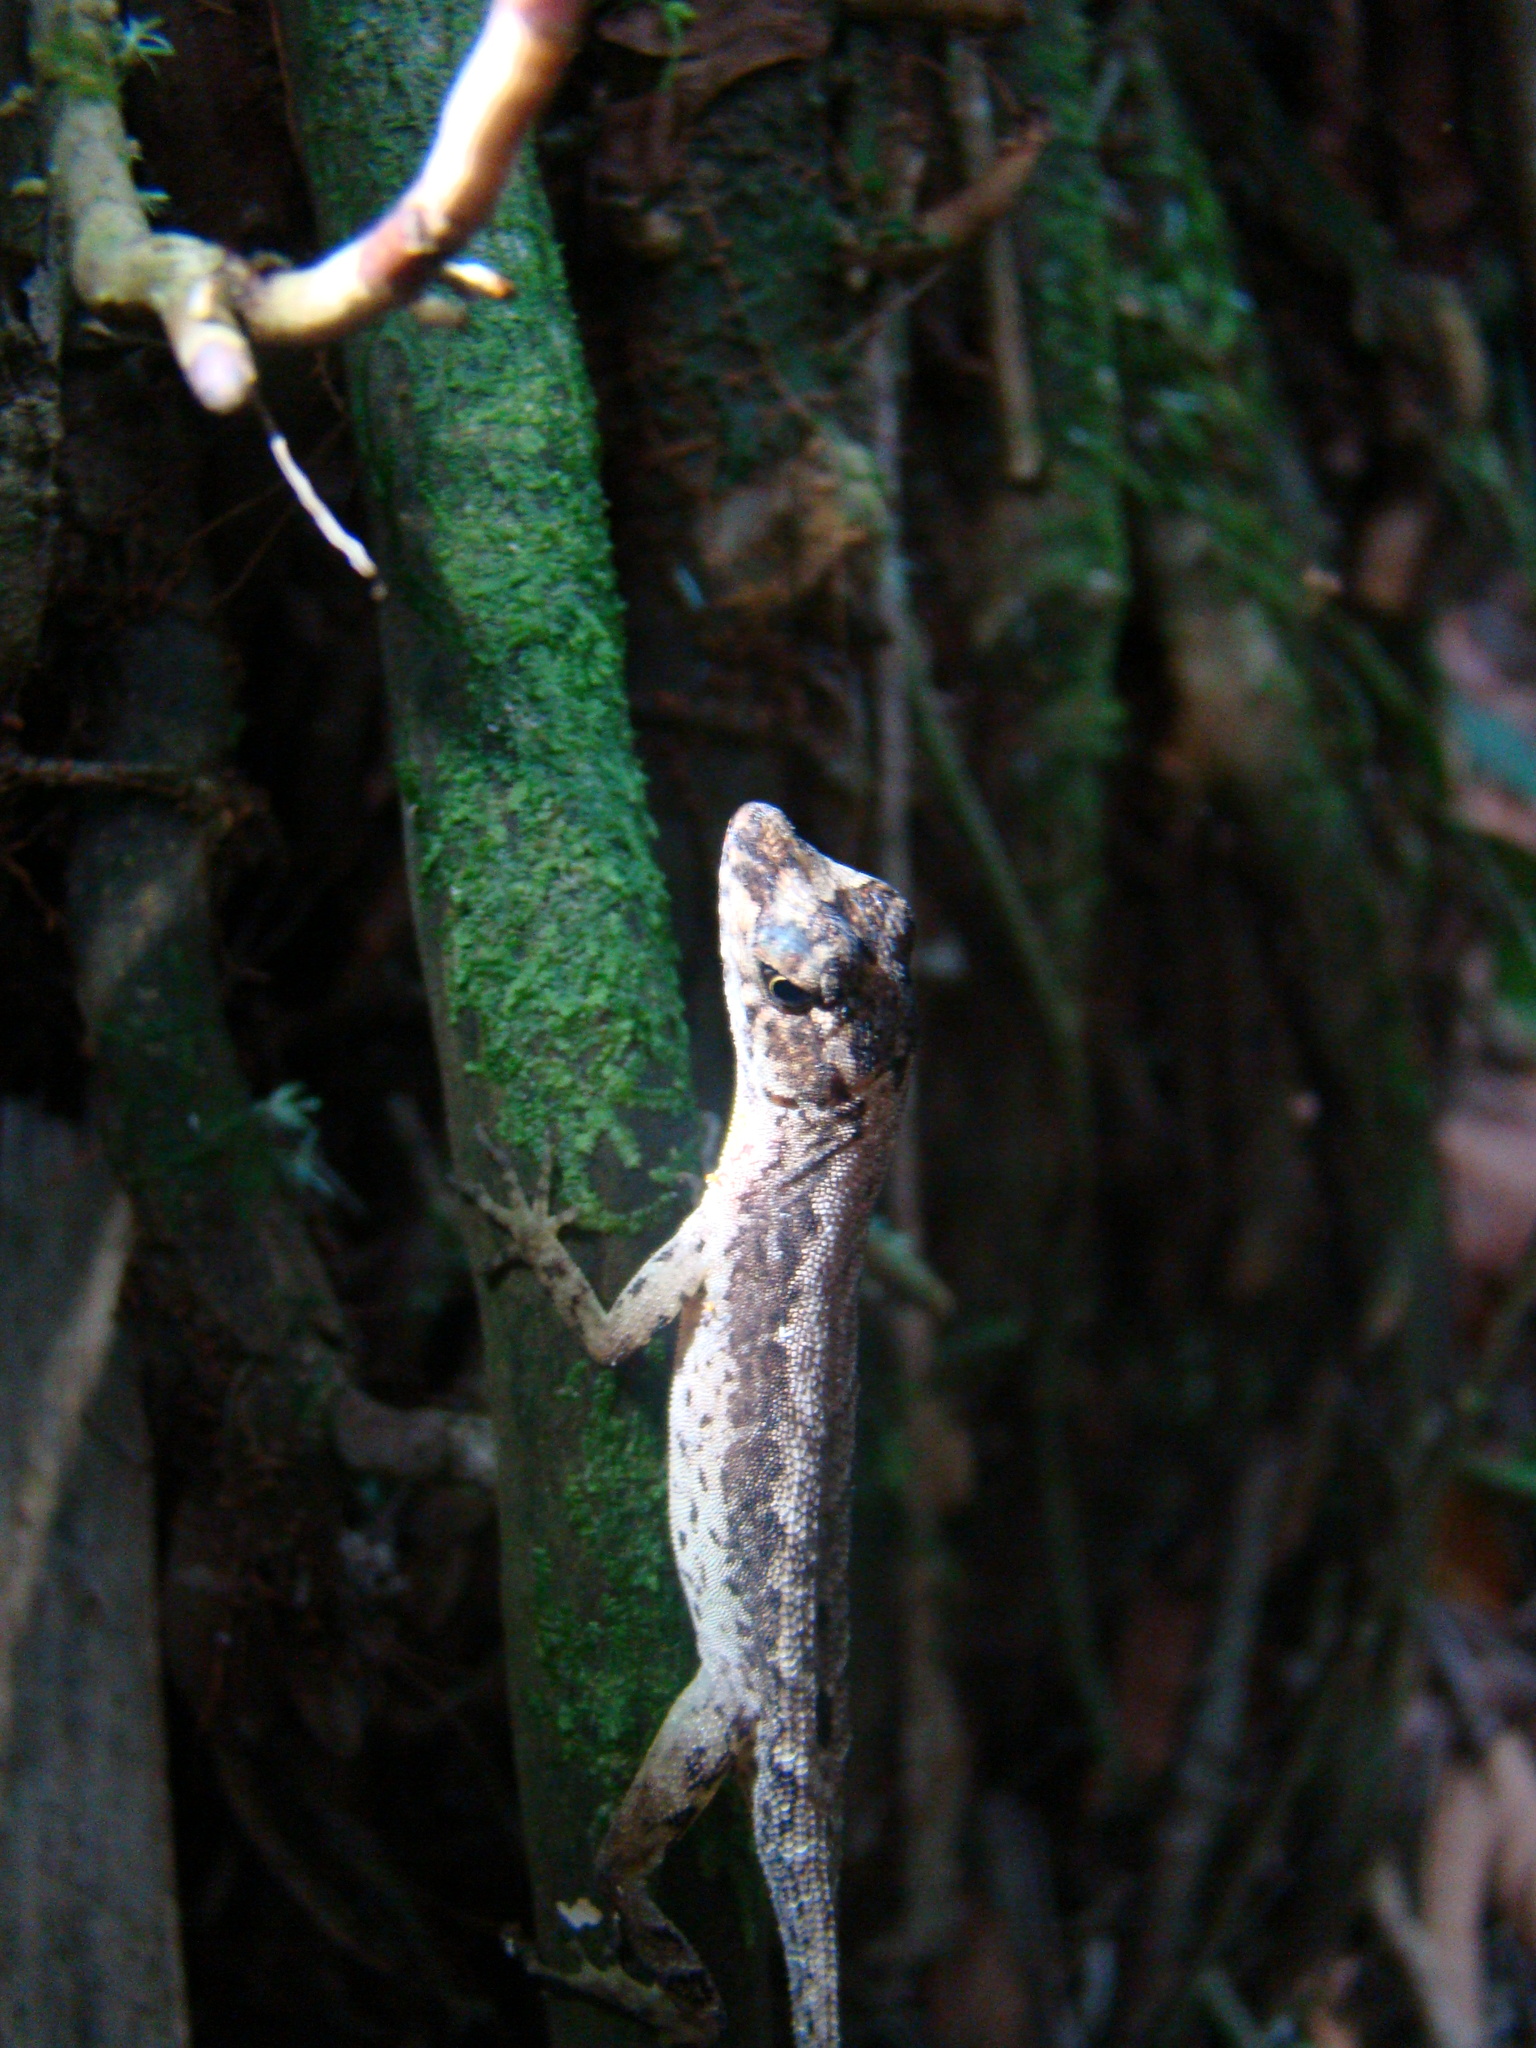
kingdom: Animalia
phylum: Chordata
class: Squamata
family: Dactyloidae
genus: Anolis
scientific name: Anolis humilis
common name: Humble anole
